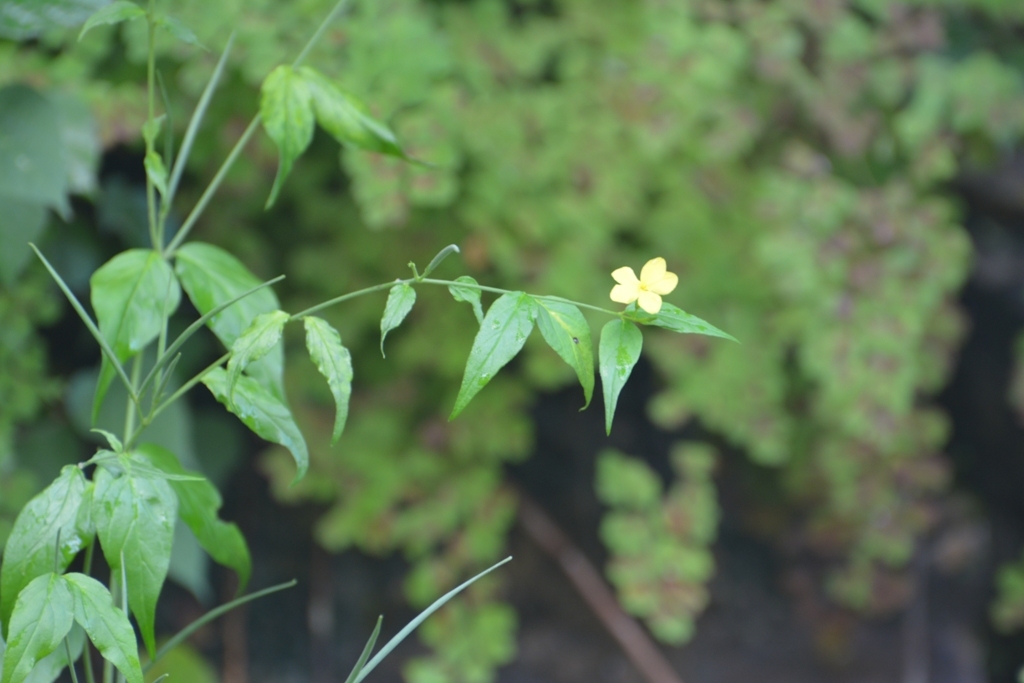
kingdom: Plantae
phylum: Tracheophyta
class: Magnoliopsida
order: Gentianales
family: Apocynaceae
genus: Haplophyton
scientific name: Haplophyton cimicidum
